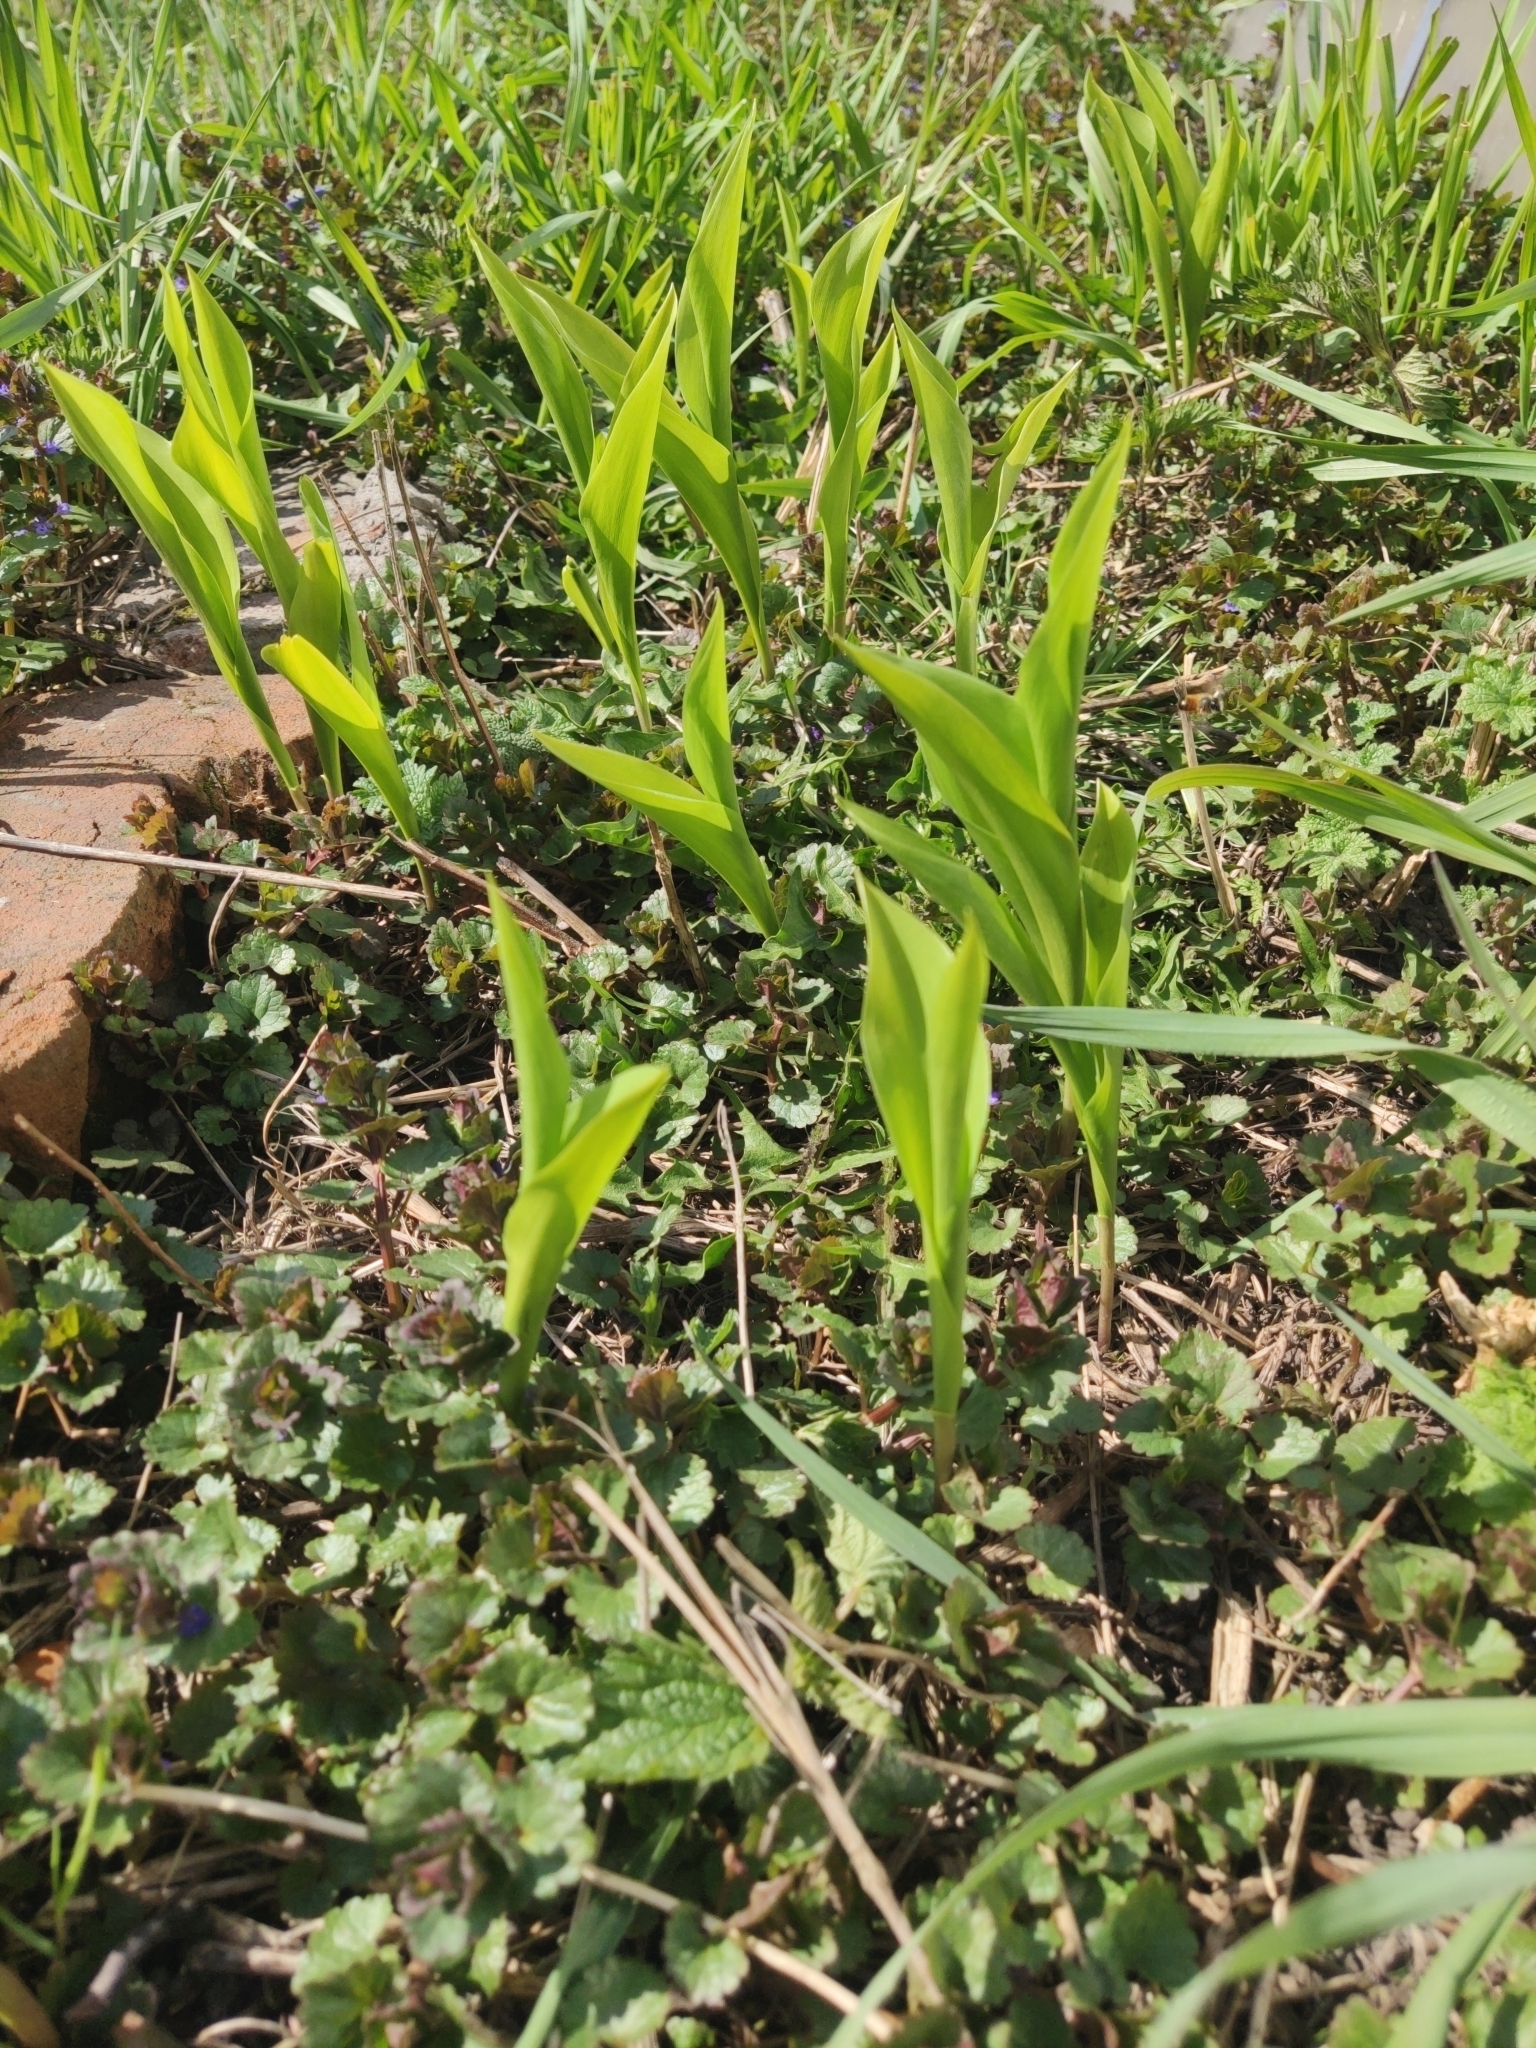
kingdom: Plantae
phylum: Tracheophyta
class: Liliopsida
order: Asparagales
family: Asparagaceae
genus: Convallaria
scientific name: Convallaria majalis
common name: Lily-of-the-valley
